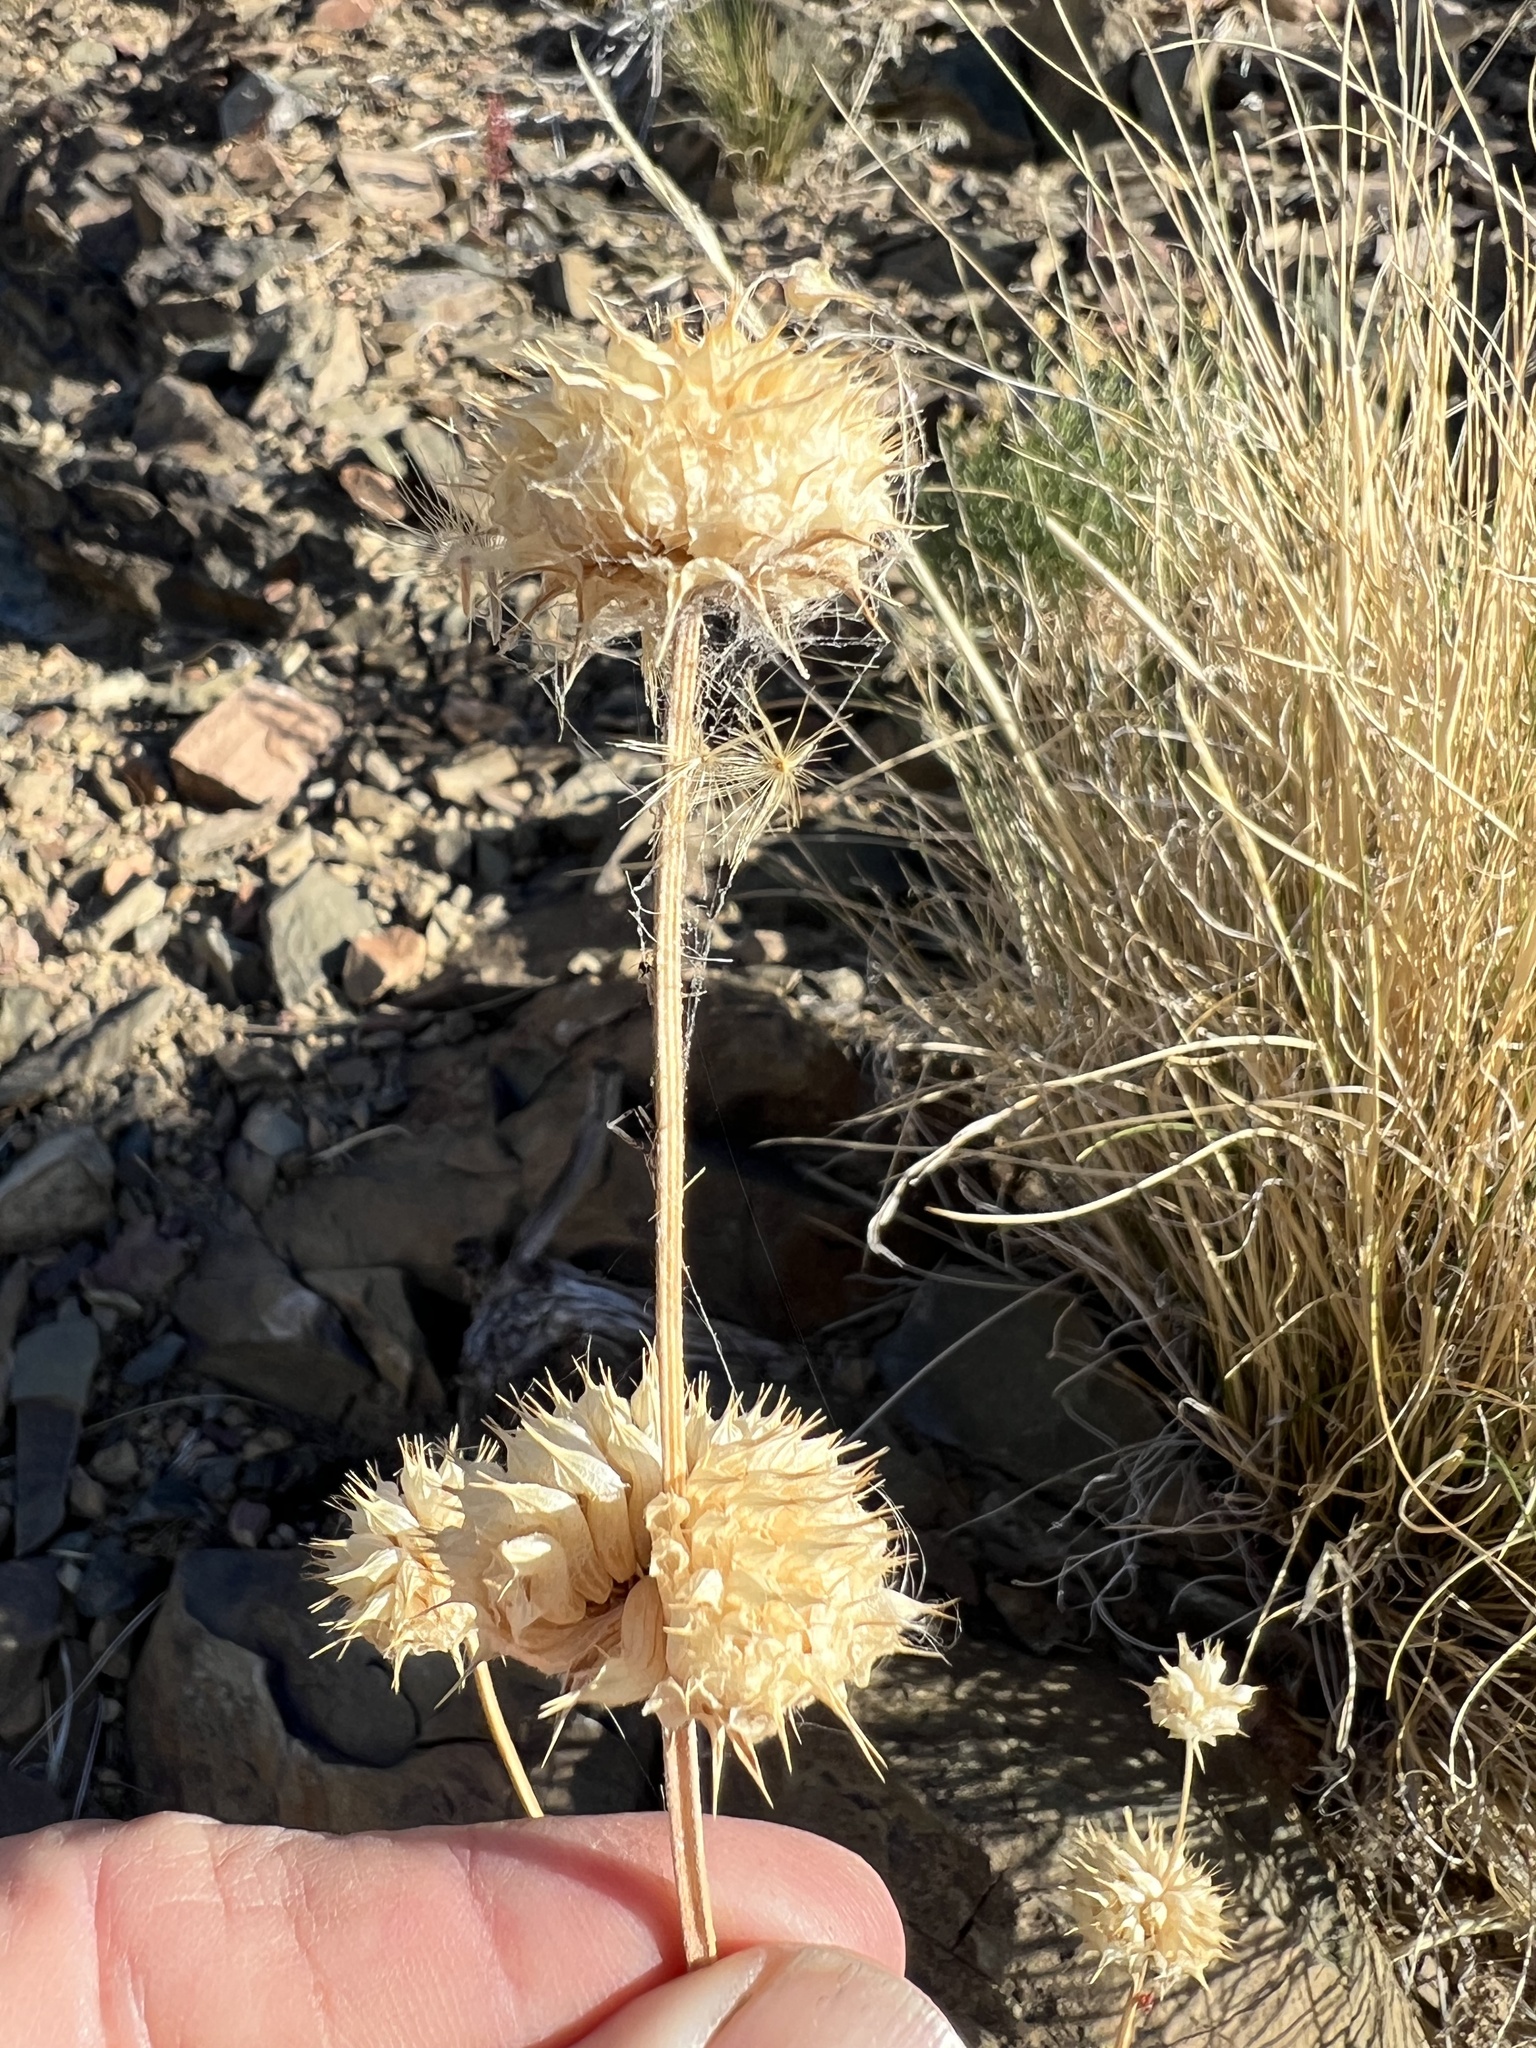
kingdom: Plantae
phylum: Tracheophyta
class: Magnoliopsida
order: Lamiales
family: Lamiaceae
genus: Salvia
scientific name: Salvia columbariae
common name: Chia
